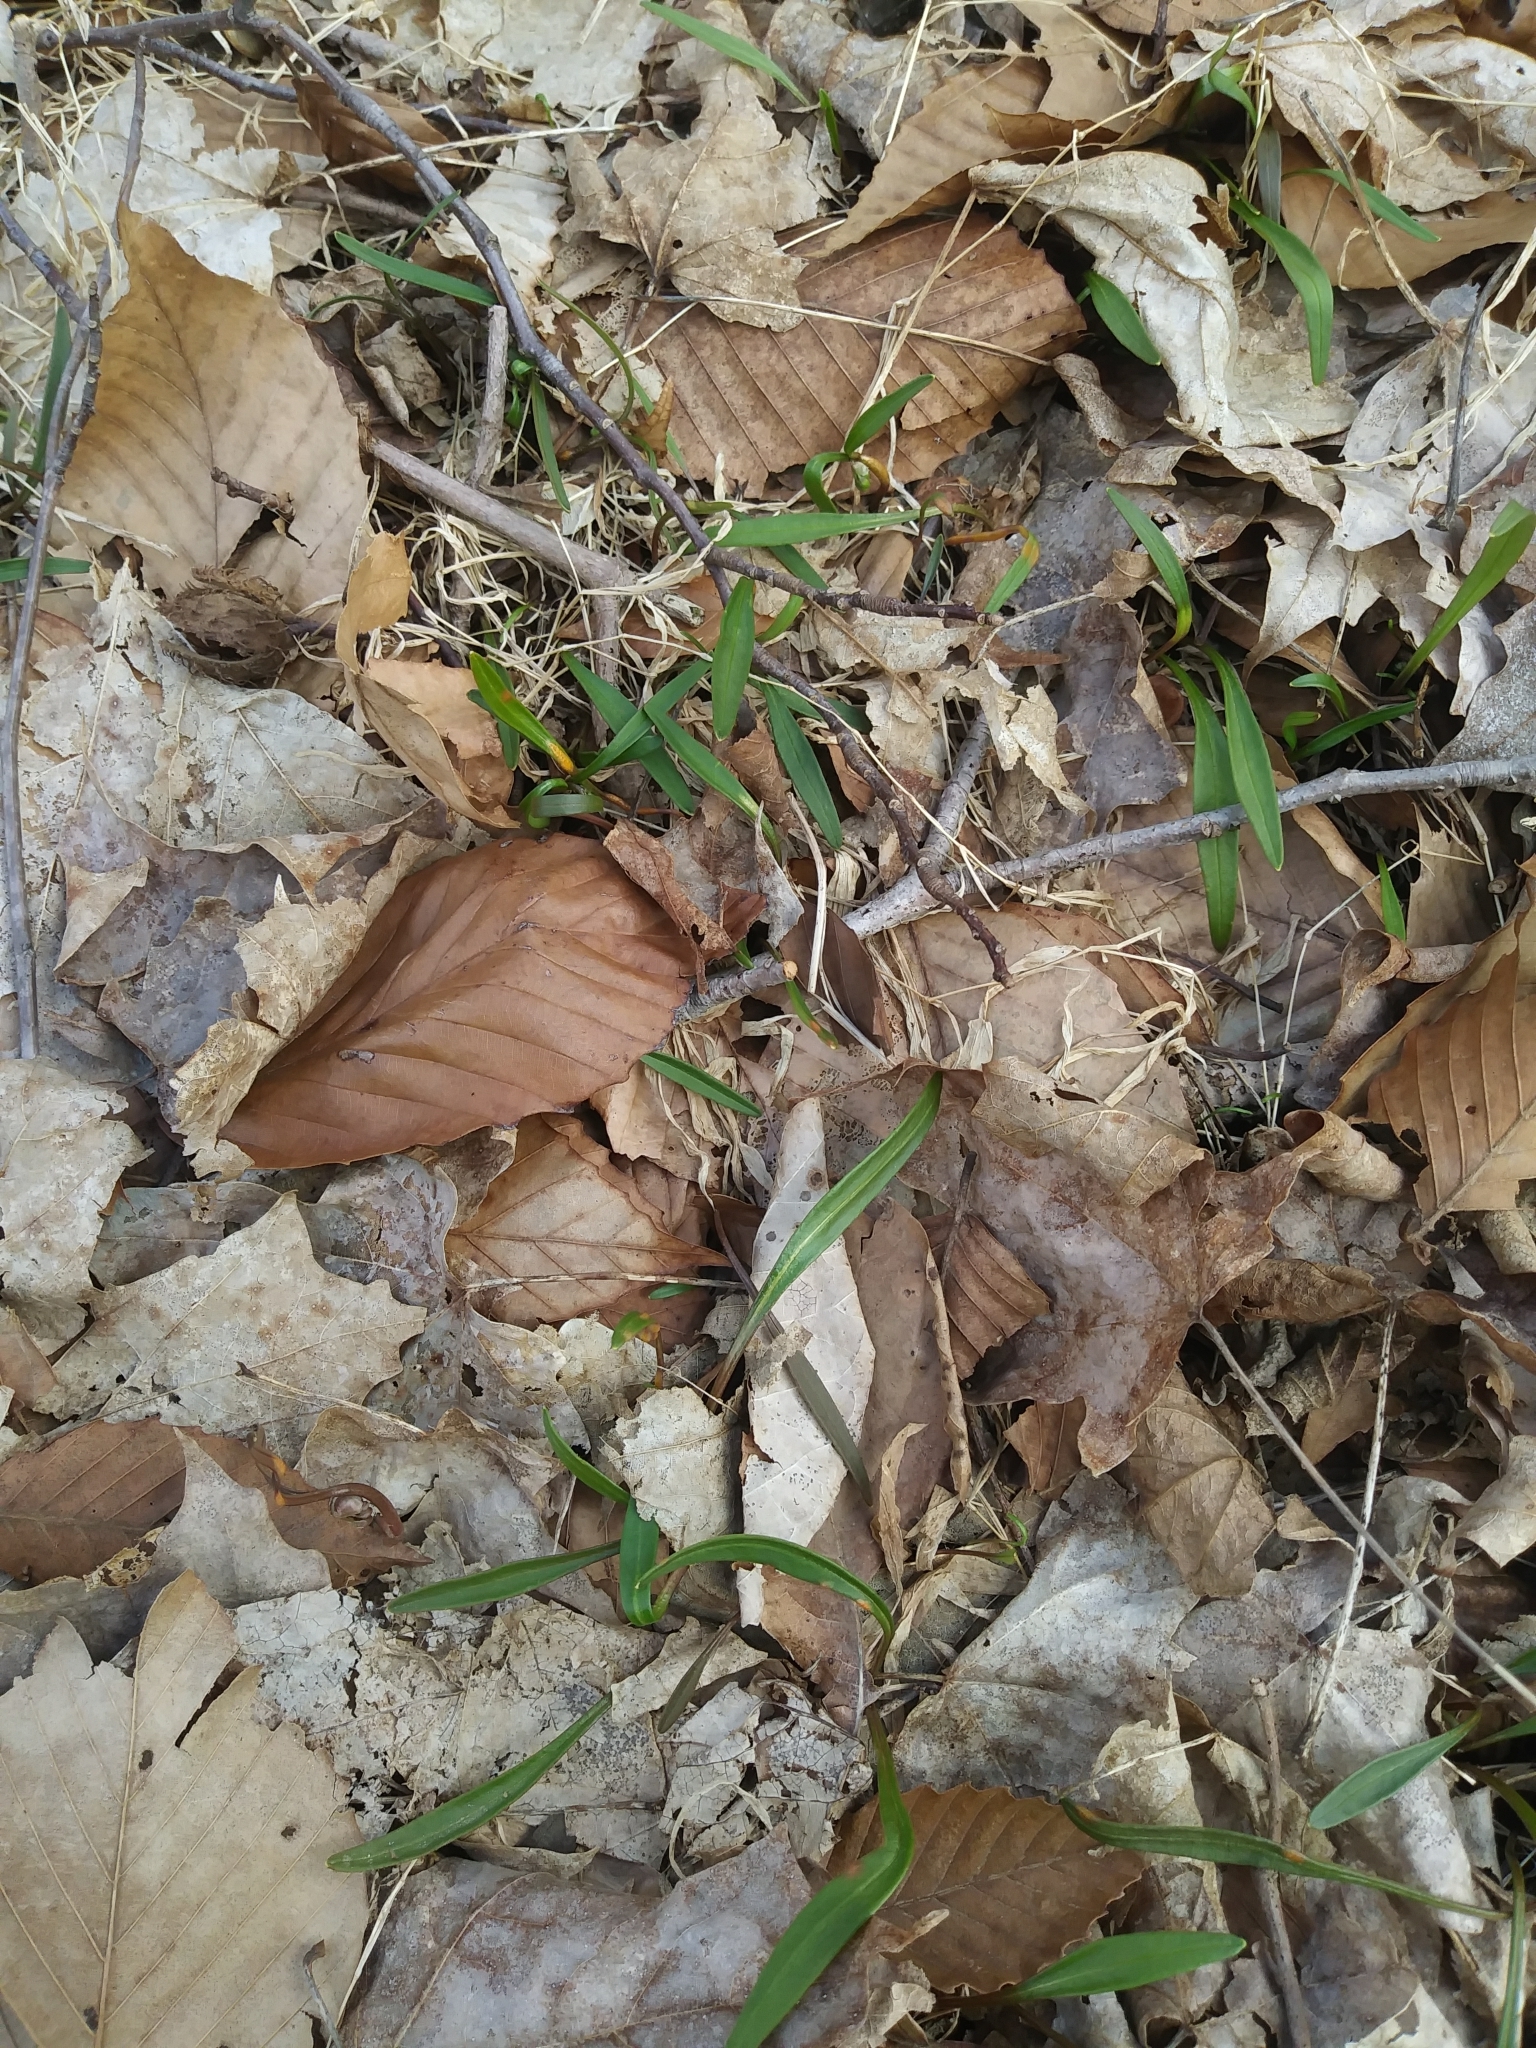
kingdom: Plantae
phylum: Tracheophyta
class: Magnoliopsida
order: Caryophyllales
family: Montiaceae
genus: Claytonia
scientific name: Claytonia virginica
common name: Virginia springbeauty
